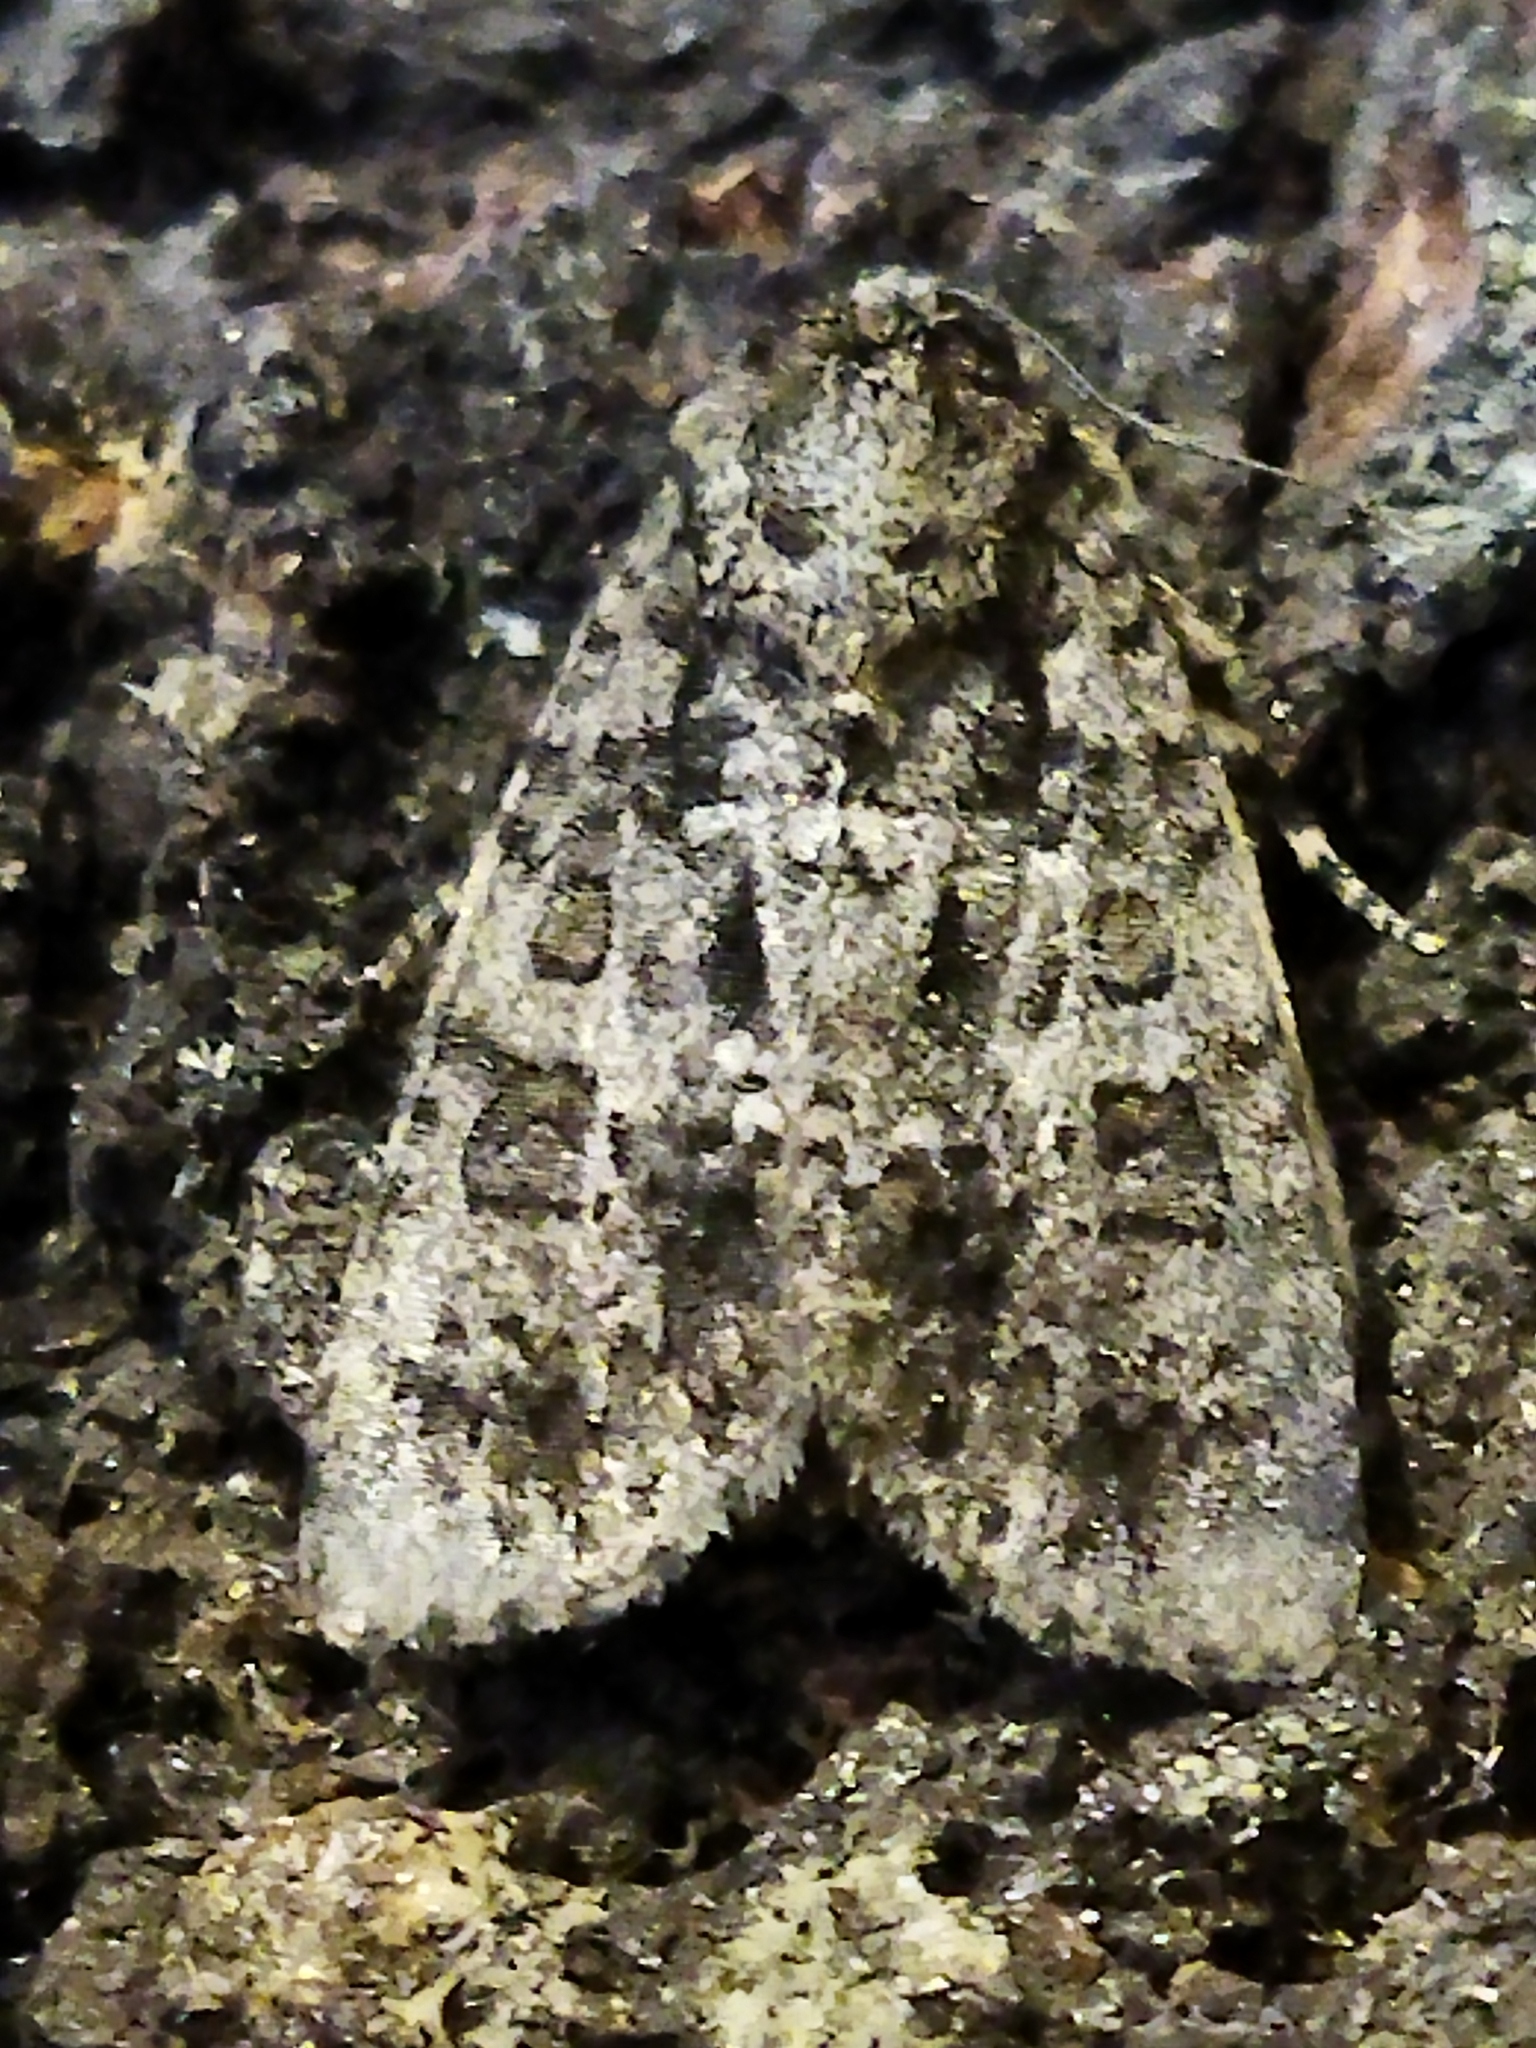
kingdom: Animalia
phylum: Arthropoda
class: Insecta
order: Lepidoptera
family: Noctuidae
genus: Acronicta
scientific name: Acronicta rumicis
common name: Knot grass
